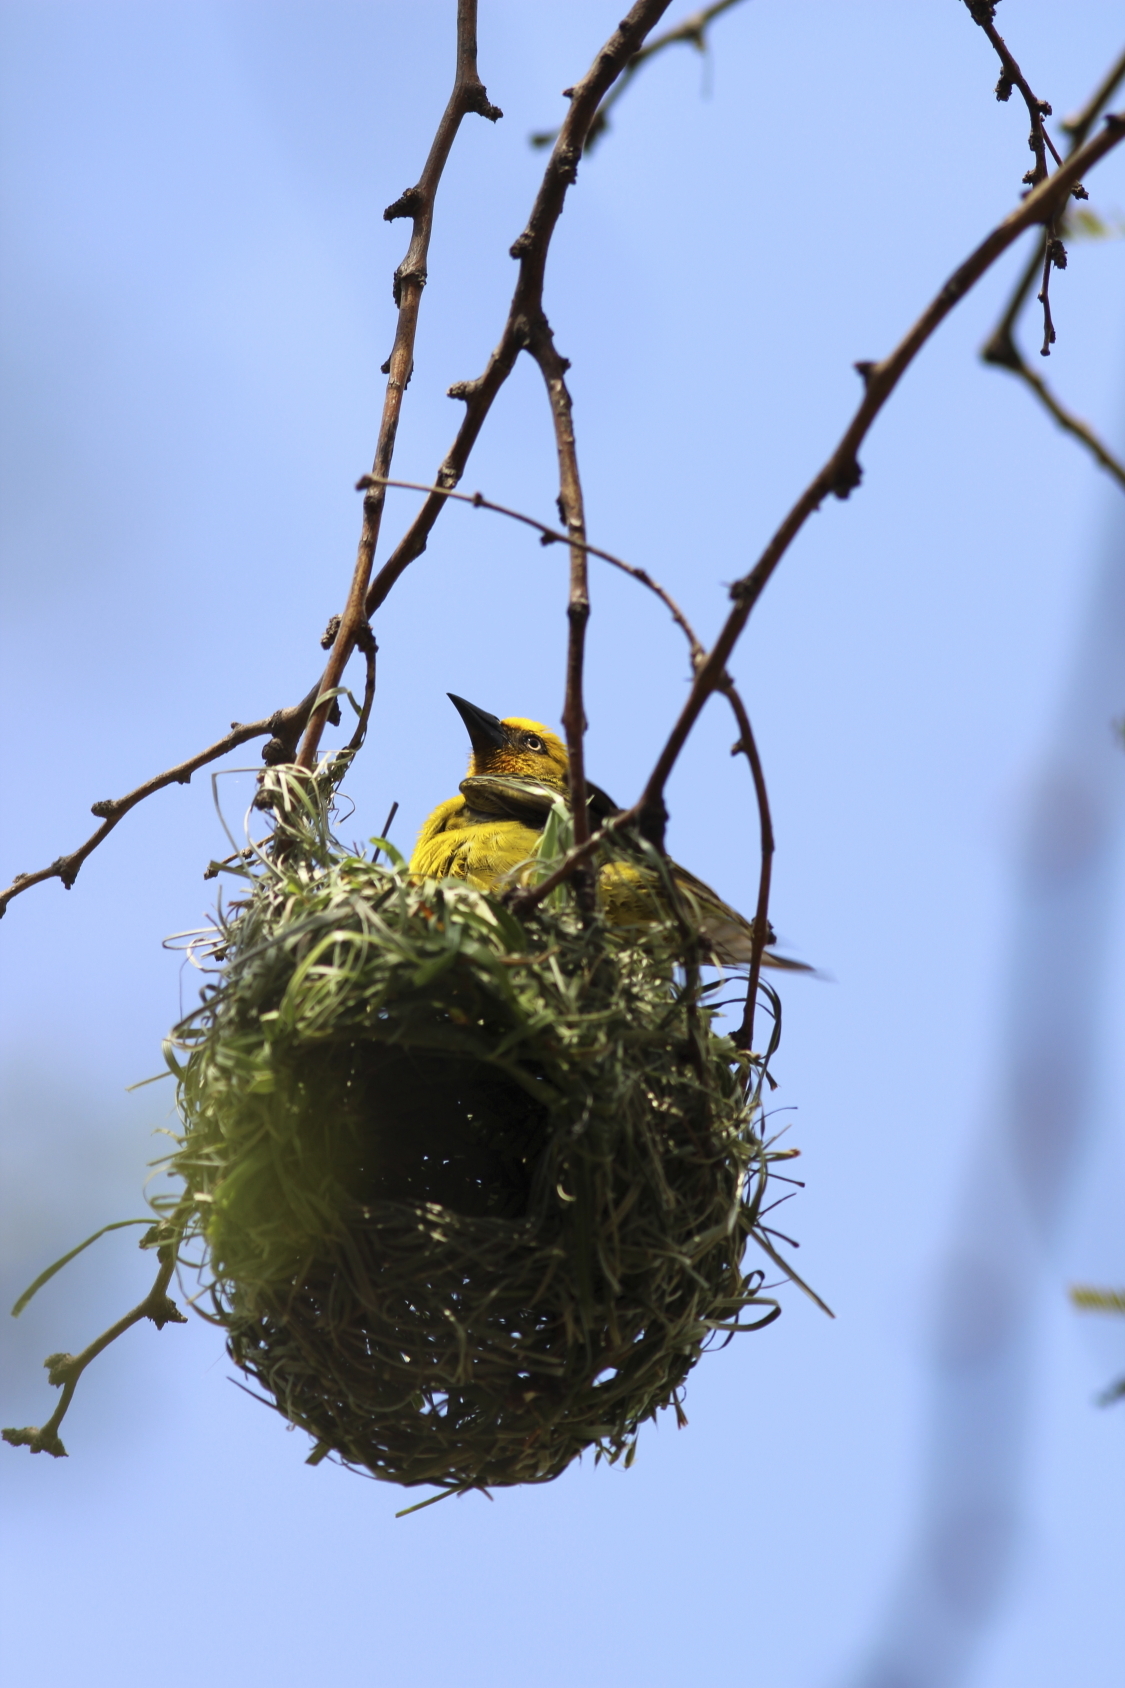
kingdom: Animalia
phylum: Chordata
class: Aves
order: Passeriformes
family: Ploceidae
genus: Ploceus
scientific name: Ploceus capensis
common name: Cape weaver
